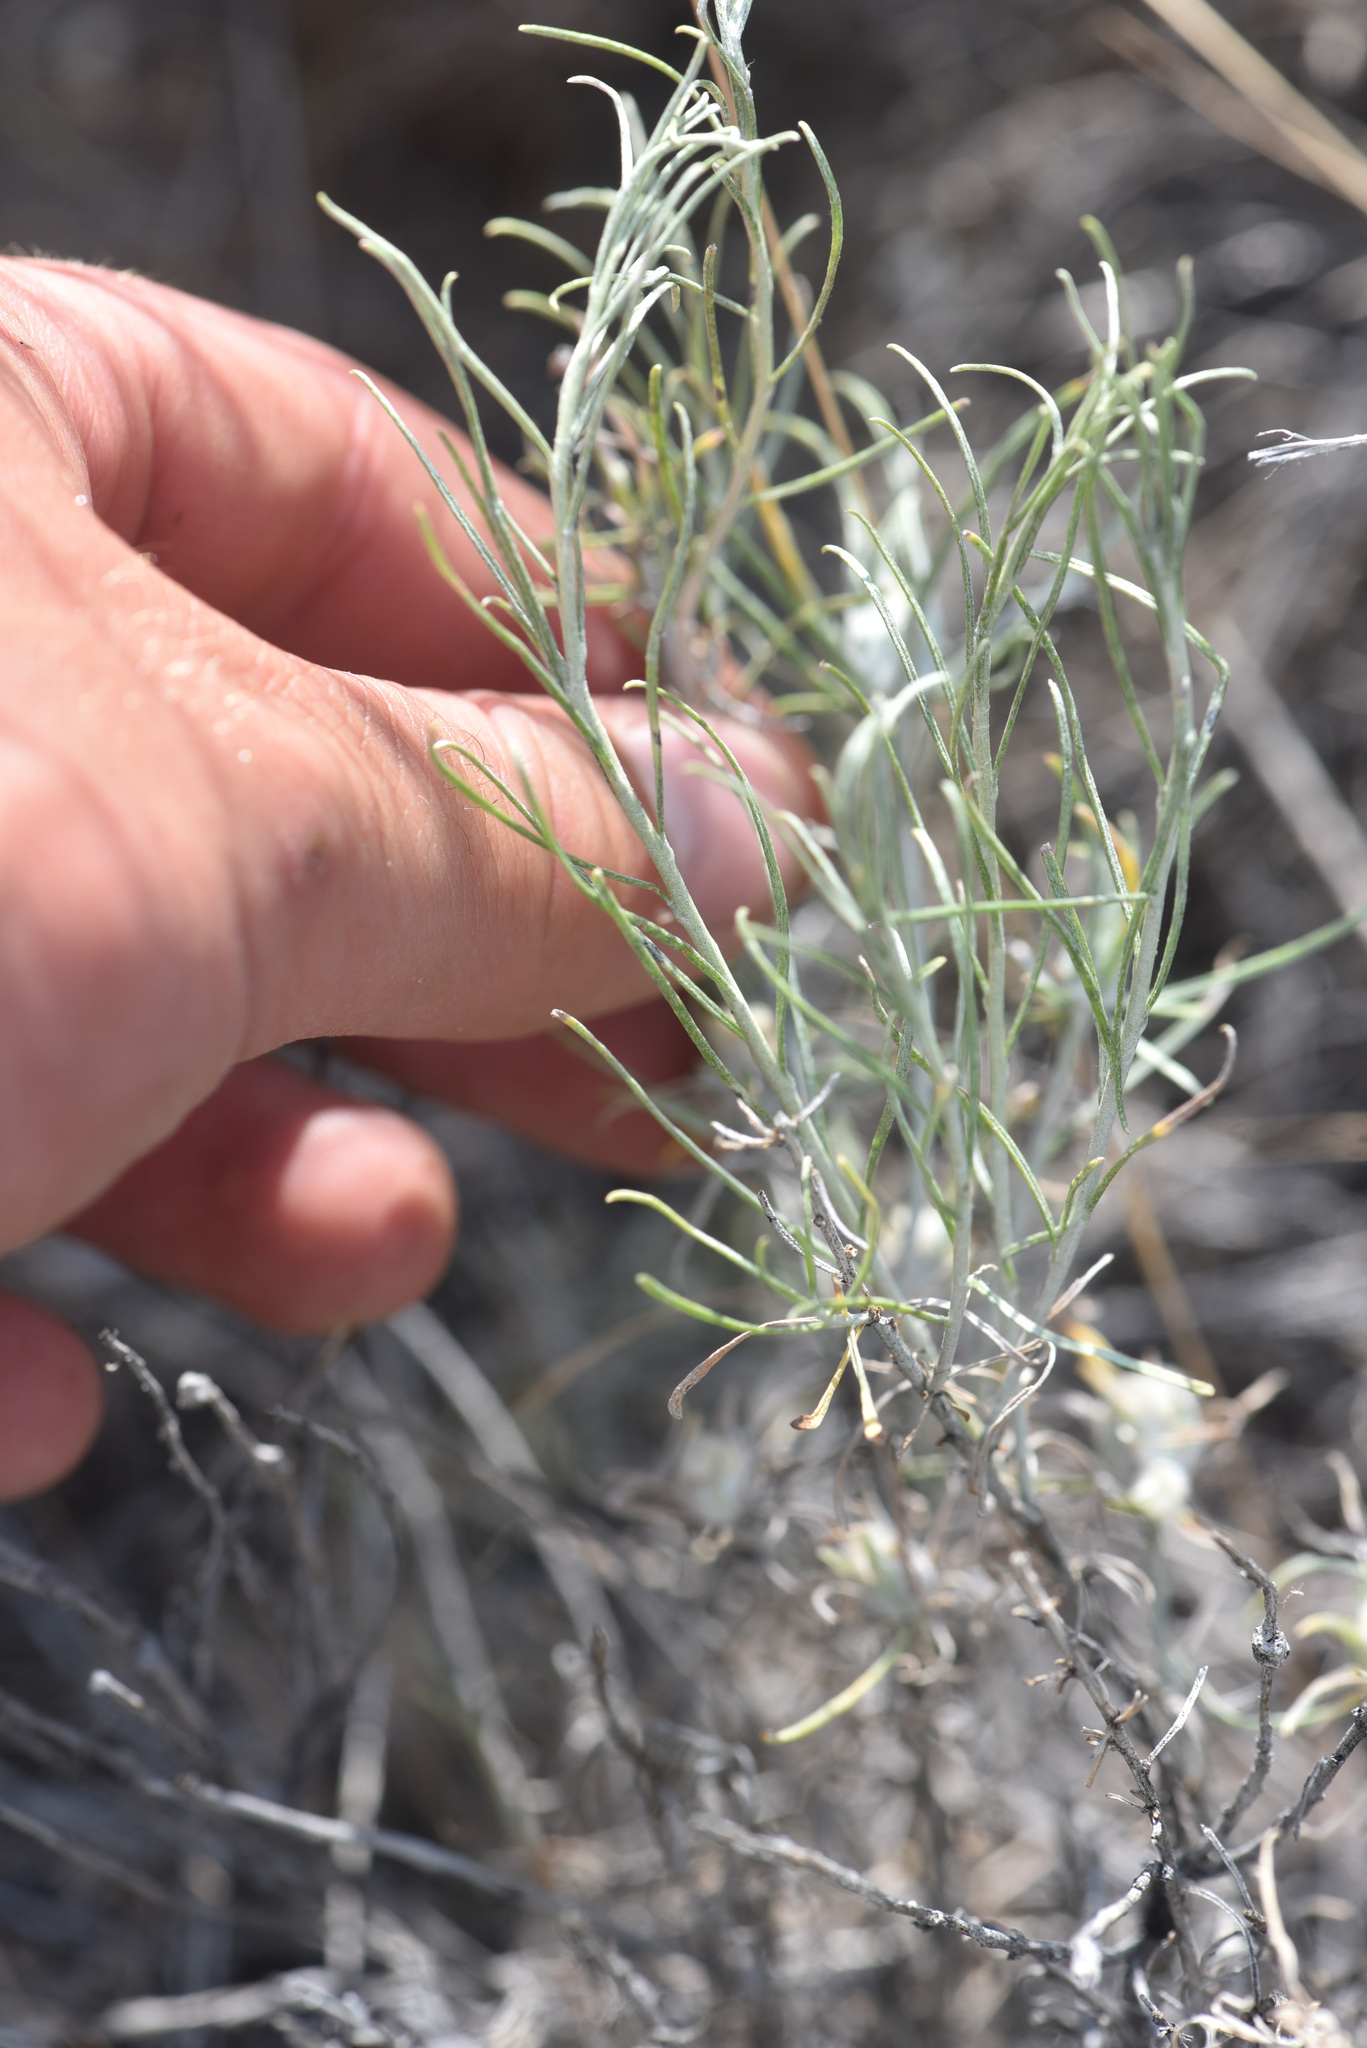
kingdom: Plantae
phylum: Tracheophyta
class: Magnoliopsida
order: Asterales
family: Asteraceae
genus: Ericameria
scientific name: Ericameria nauseosa
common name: Rubber rabbitbrush
